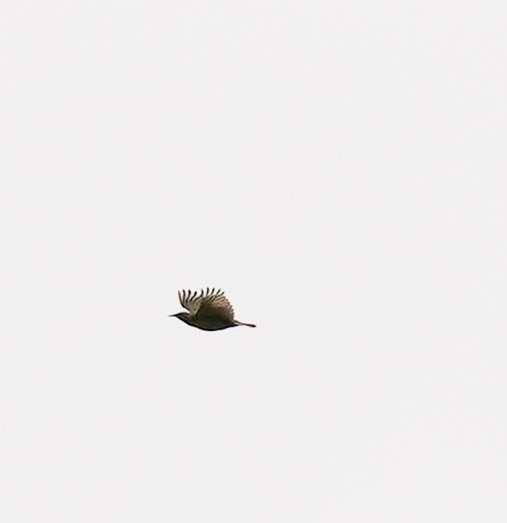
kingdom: Animalia
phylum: Chordata
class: Aves
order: Passeriformes
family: Icteridae
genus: Sturnella
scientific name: Sturnella neglecta
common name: Western meadowlark
